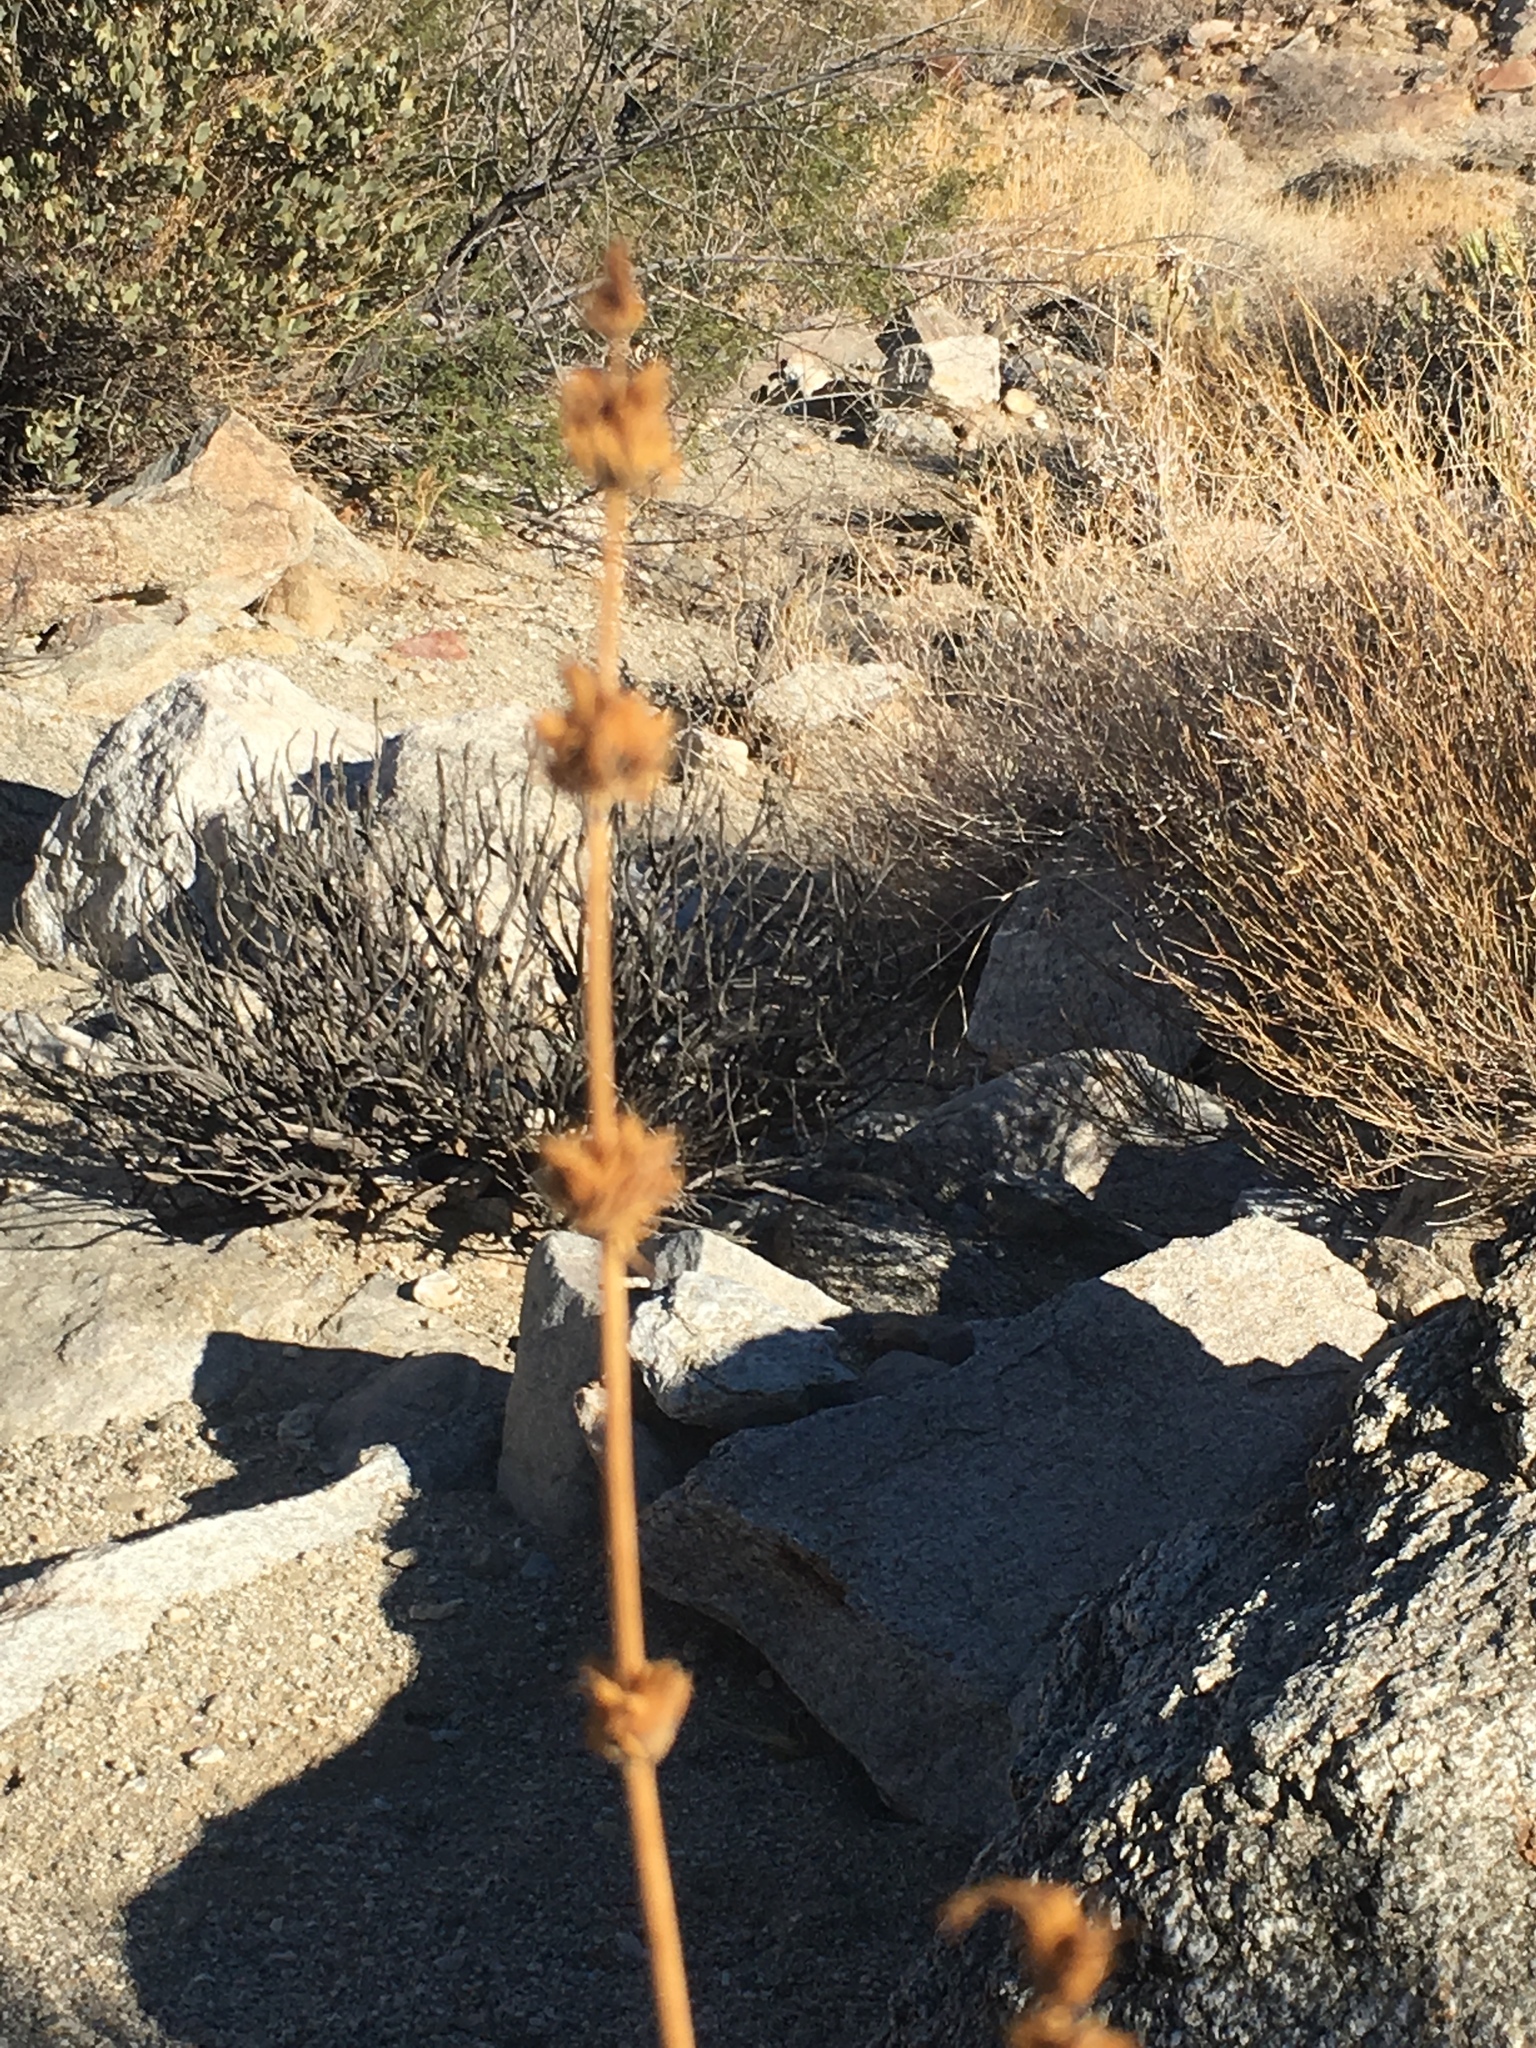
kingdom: Plantae
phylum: Tracheophyta
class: Magnoliopsida
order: Lamiales
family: Lamiaceae
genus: Salvia
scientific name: Salvia vaseyi
